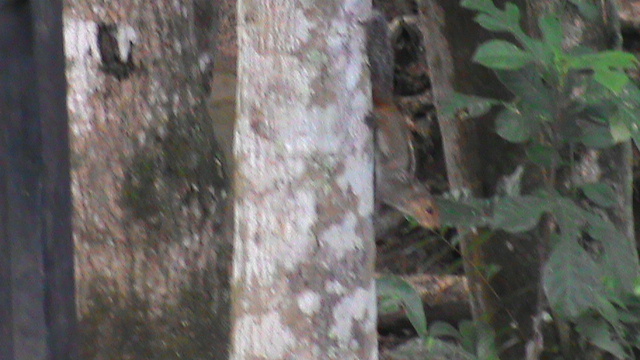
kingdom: Animalia
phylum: Chordata
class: Mammalia
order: Rodentia
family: Sciuridae
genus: Funambulus
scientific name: Funambulus tristriatus
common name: Jungle palm squirrel
